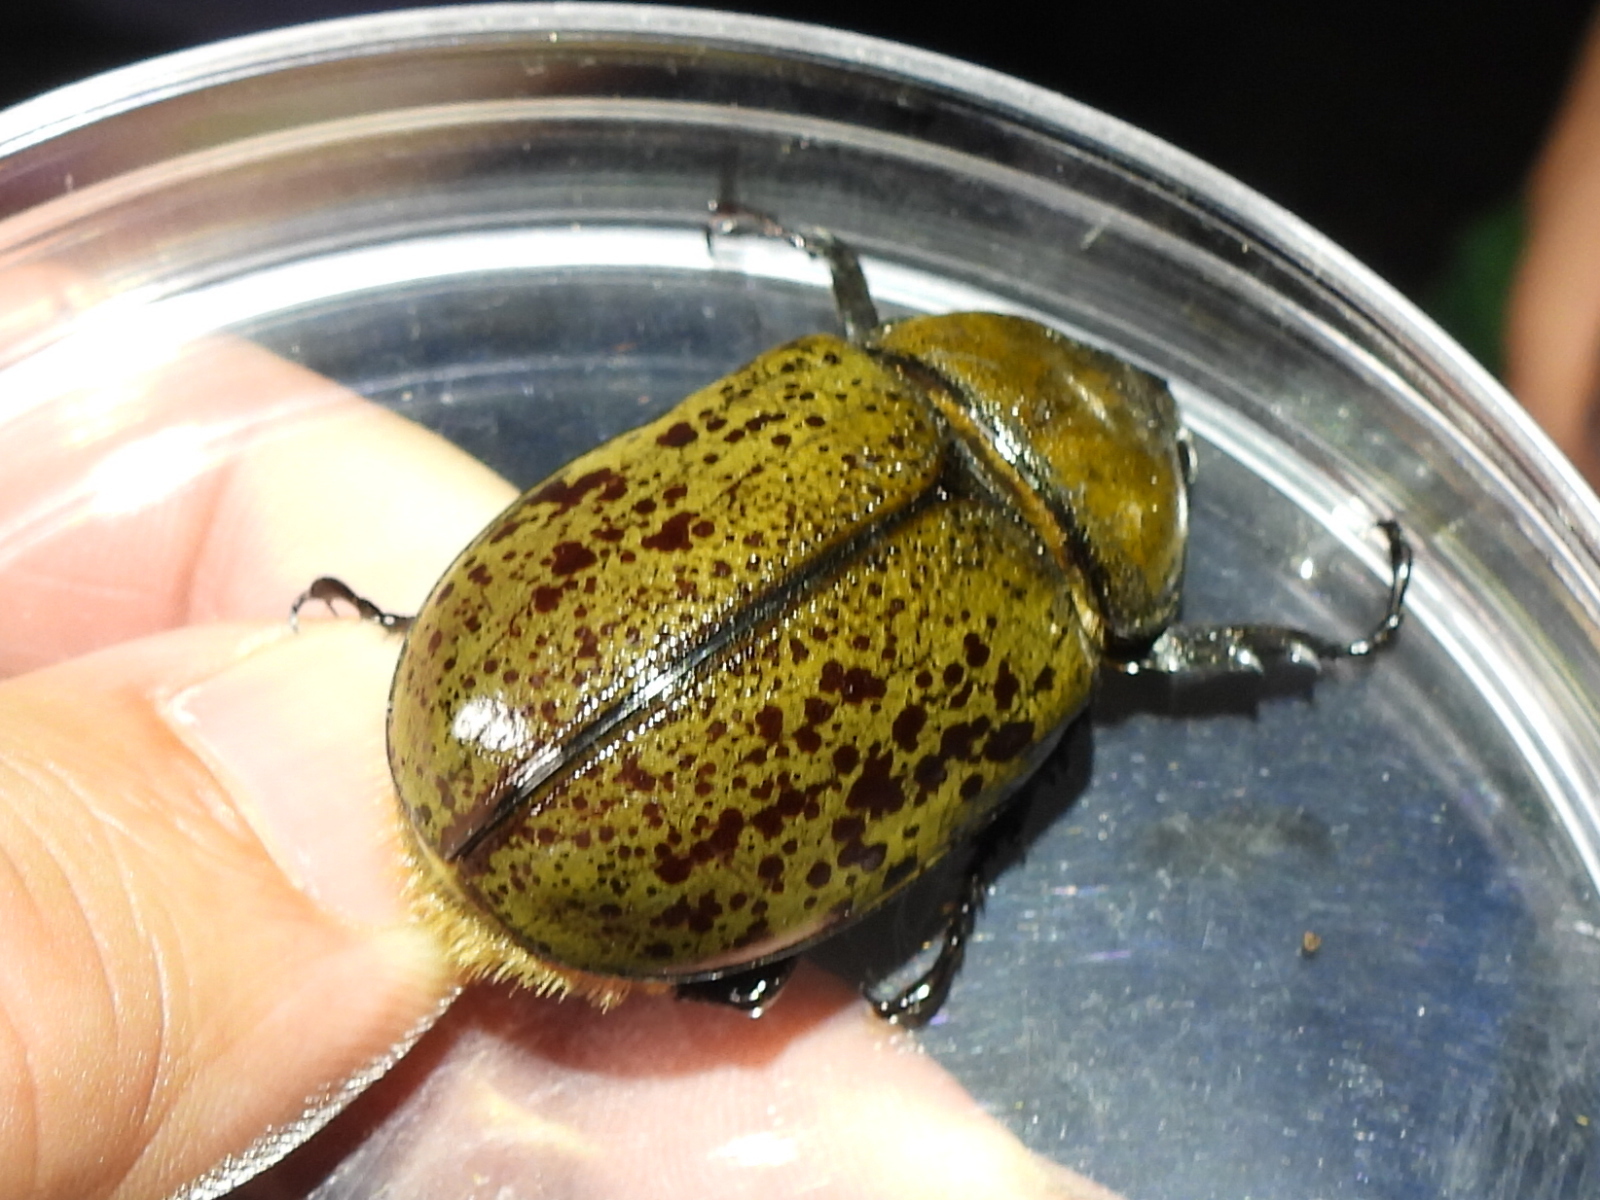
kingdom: Animalia
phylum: Arthropoda
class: Insecta
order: Coleoptera
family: Scarabaeidae
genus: Dynastes
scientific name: Dynastes tityus
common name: Eastern hercules beetle
